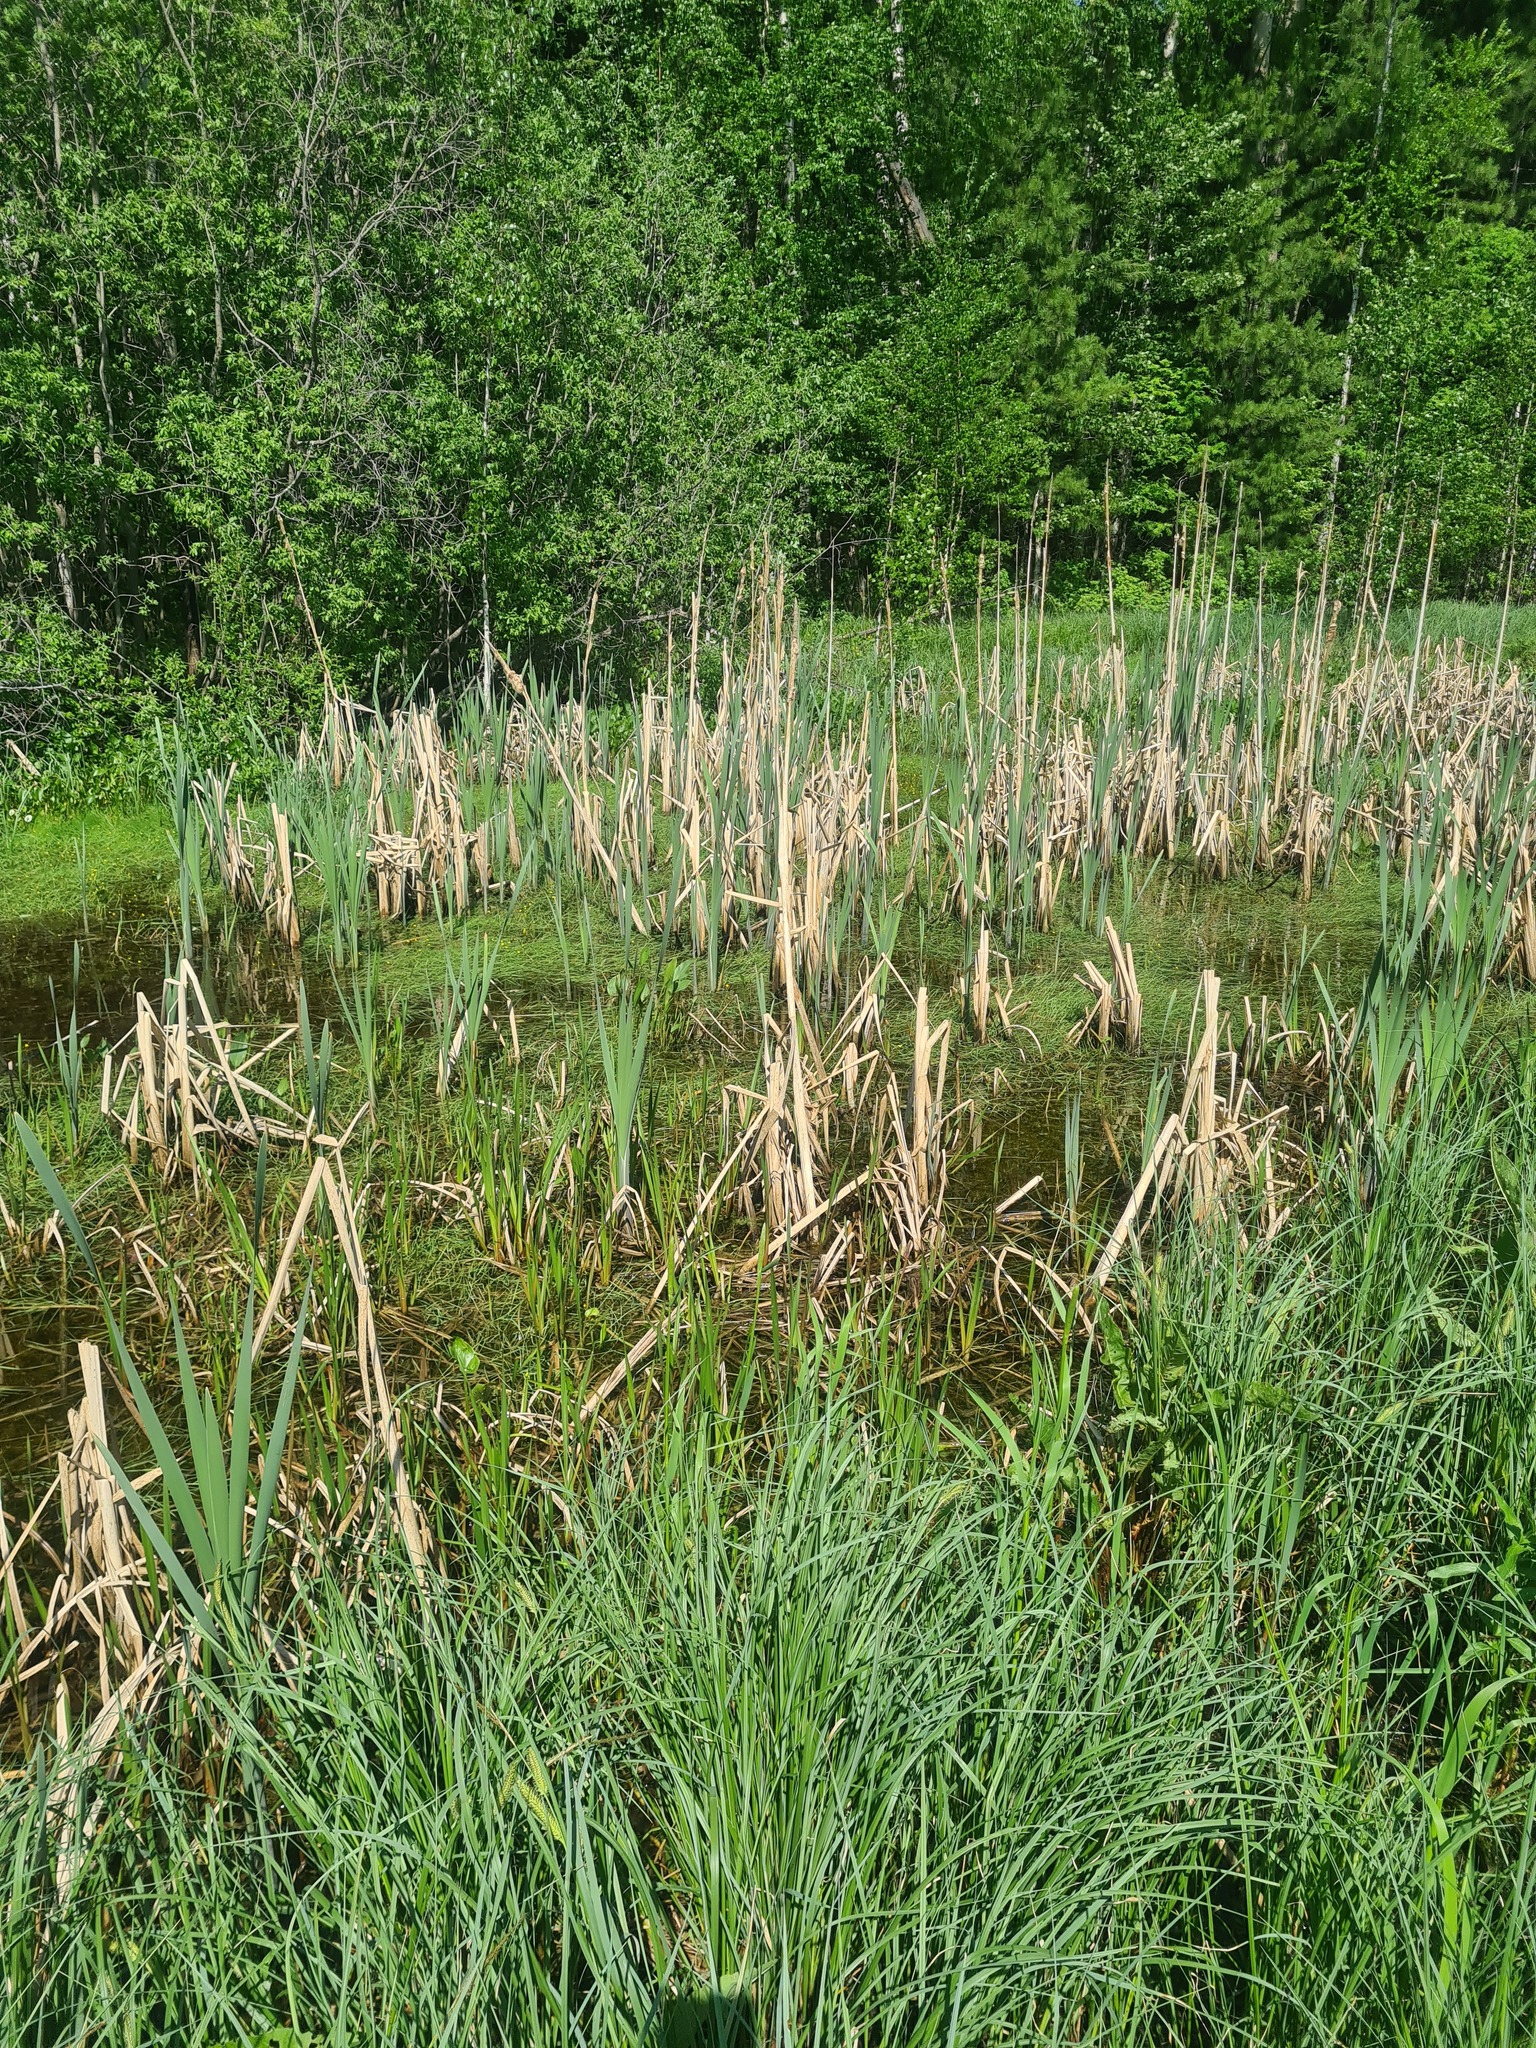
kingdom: Plantae
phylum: Tracheophyta
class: Liliopsida
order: Poales
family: Typhaceae
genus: Typha
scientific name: Typha latifolia
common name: Broadleaf cattail
